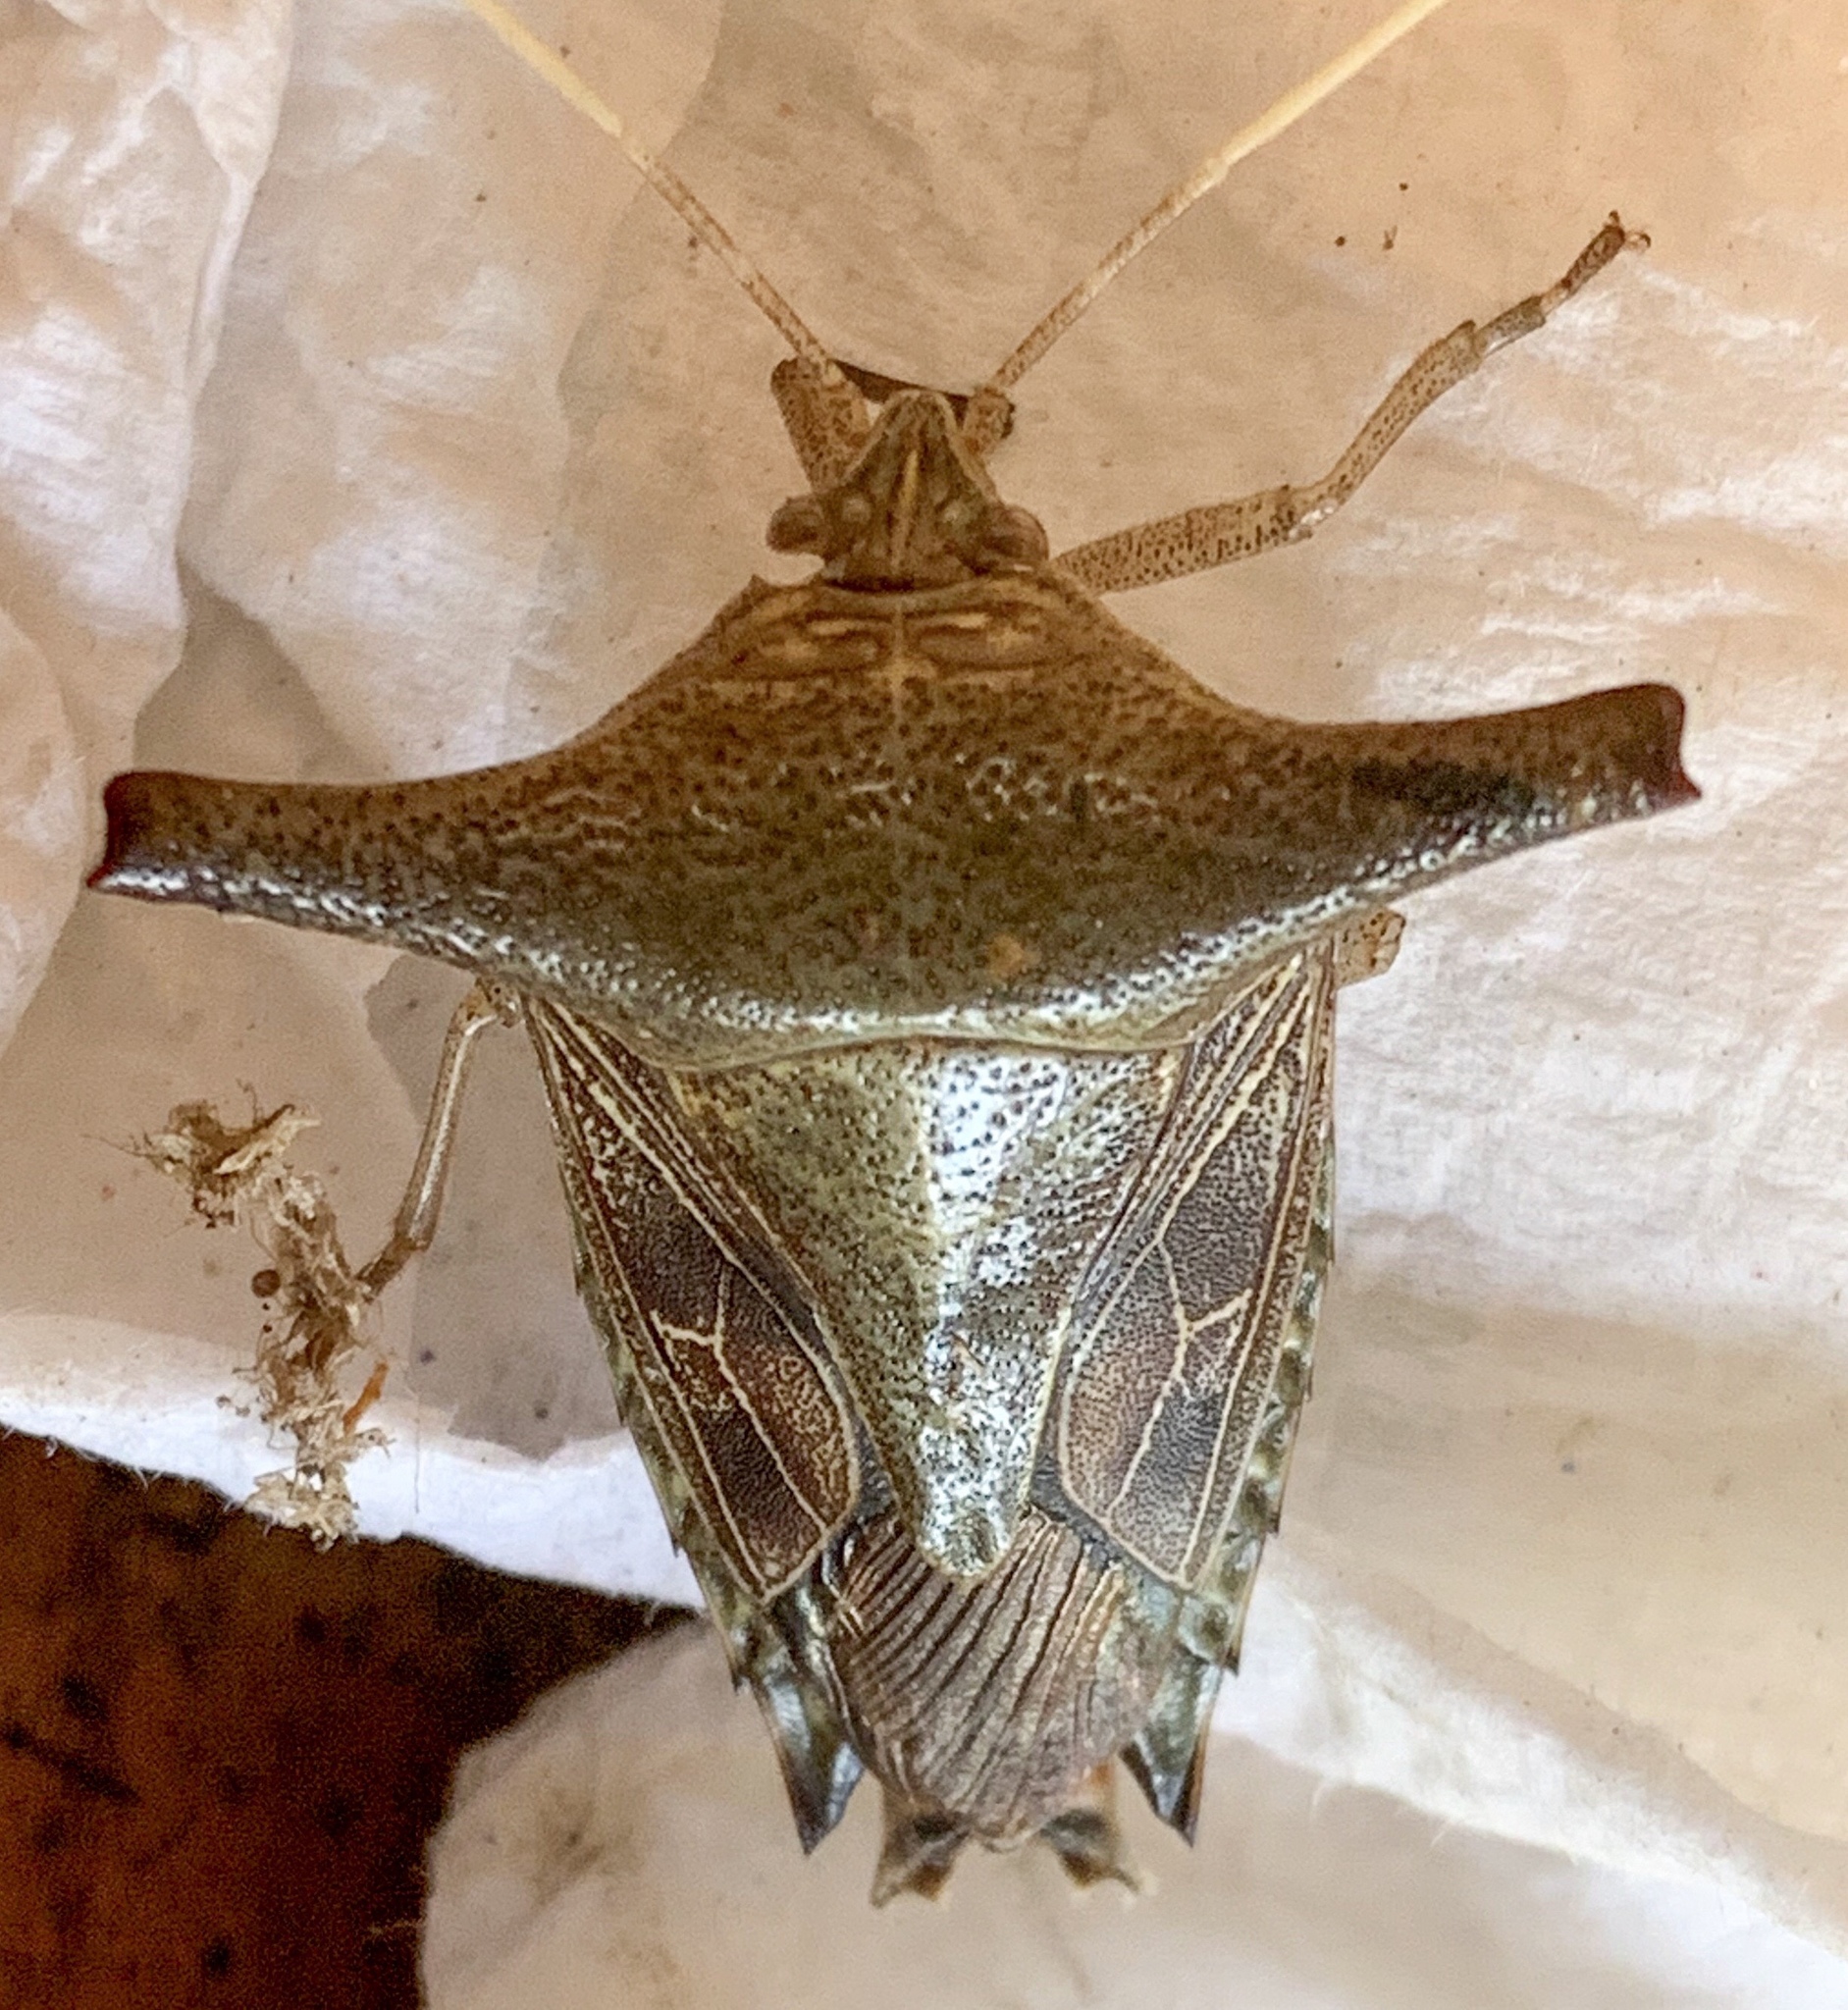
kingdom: Animalia
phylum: Arthropoda
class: Insecta
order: Hemiptera
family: Pentatomidae
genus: Edessa
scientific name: Edessa laticornis
